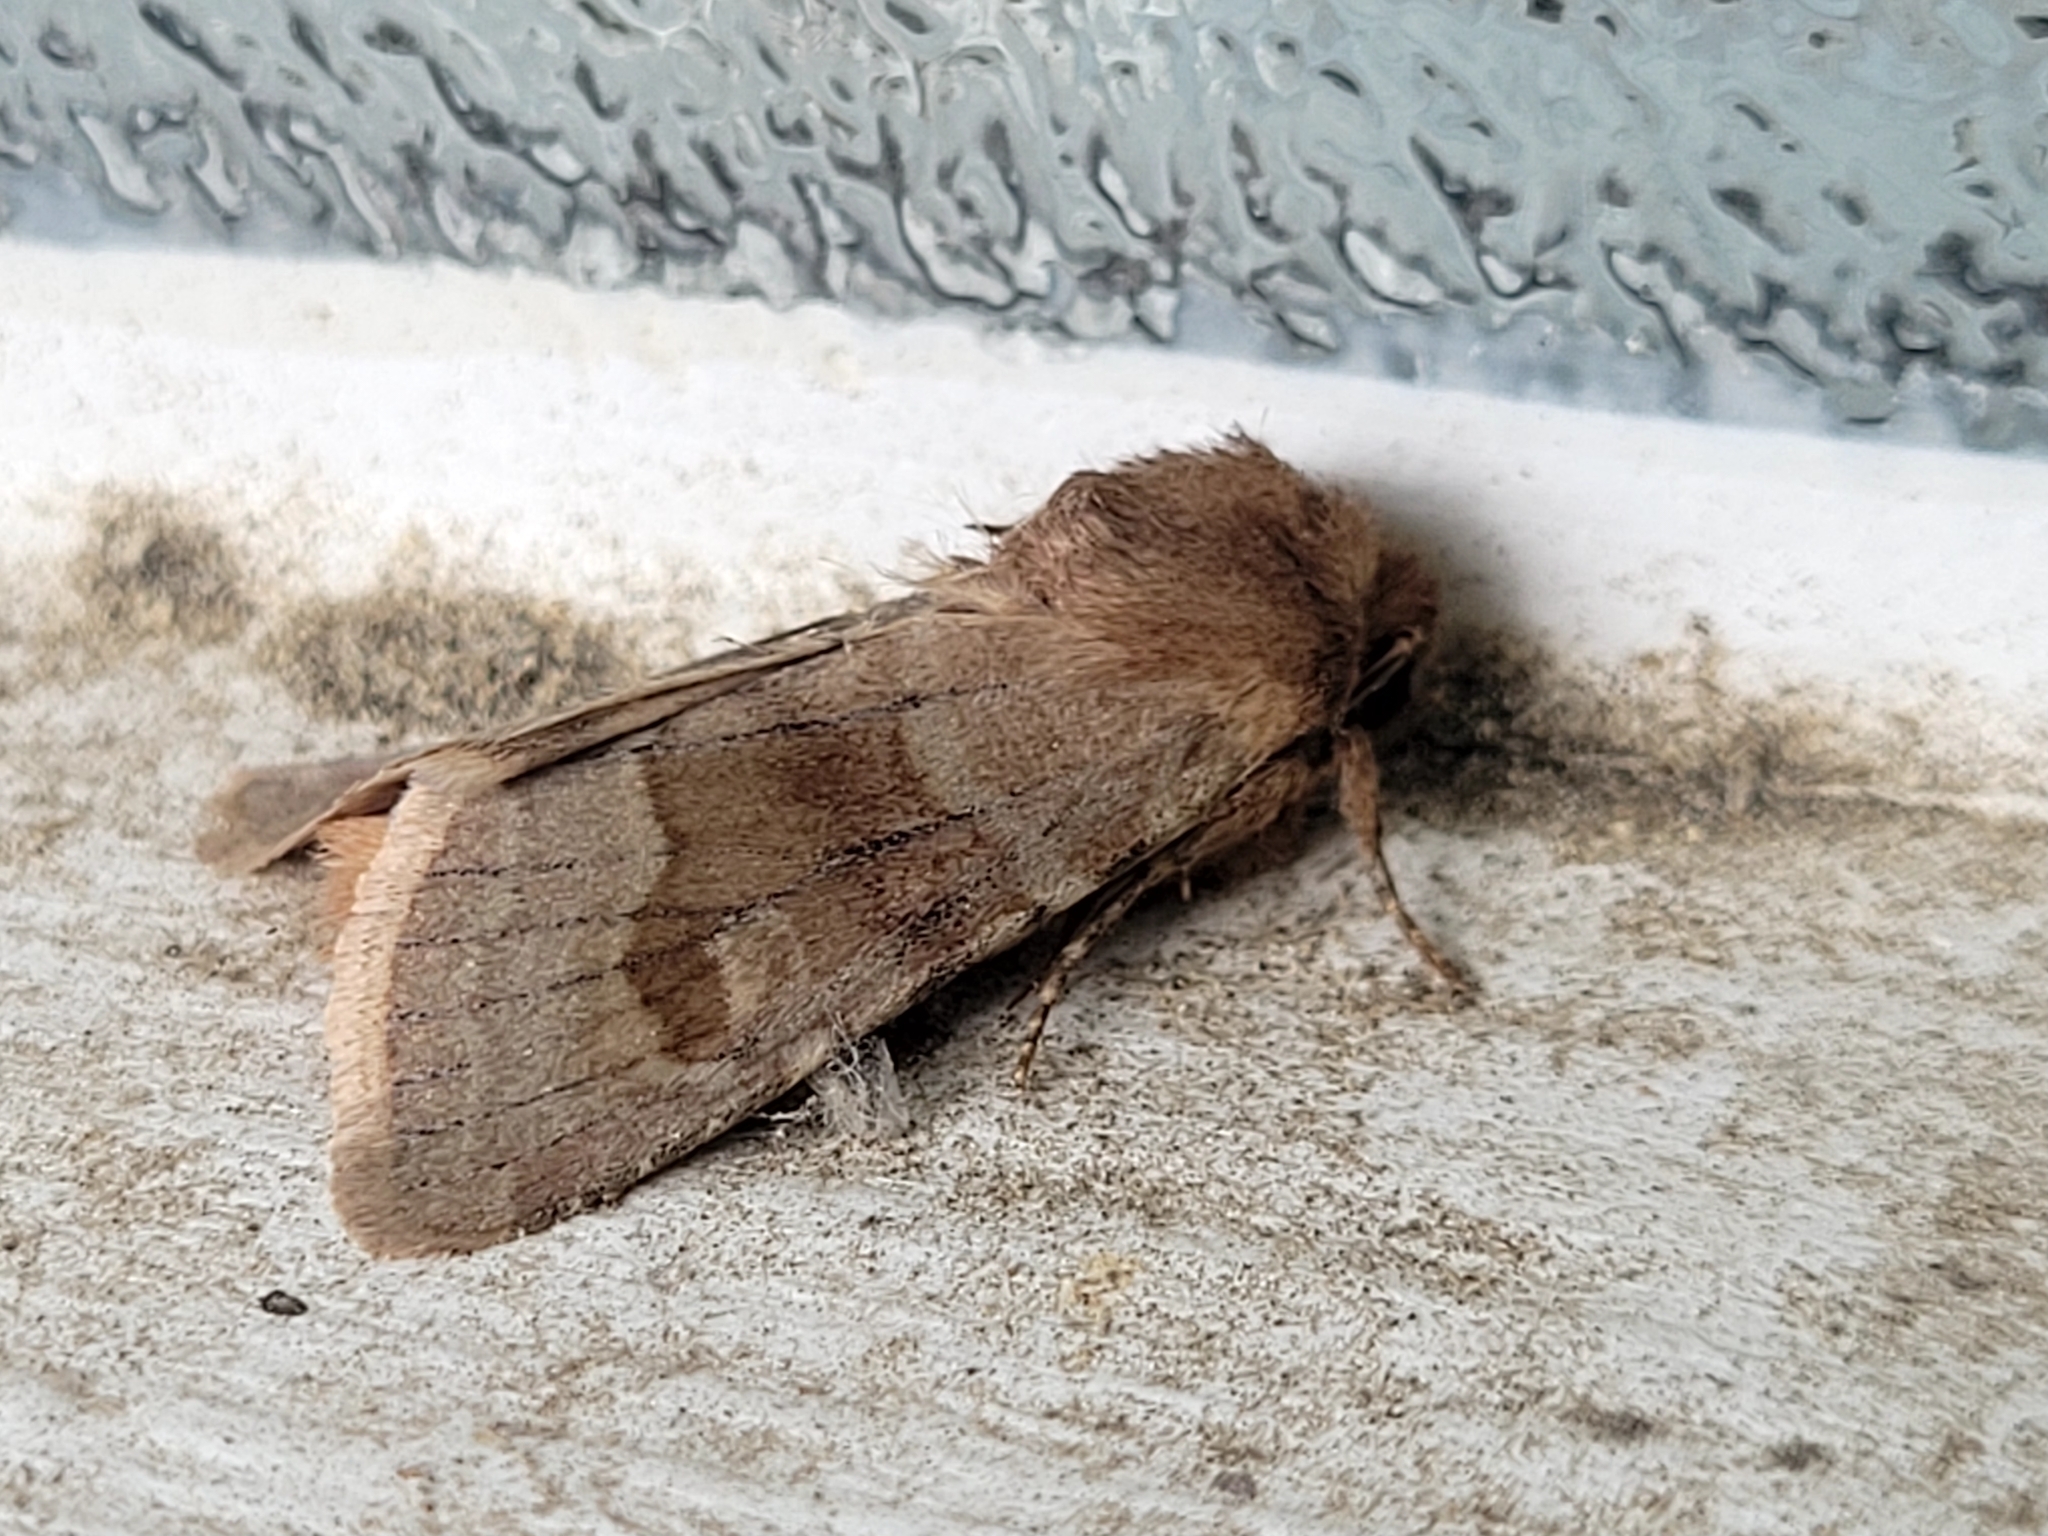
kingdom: Animalia
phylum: Arthropoda
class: Insecta
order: Lepidoptera
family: Noctuidae
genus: Nephelodes
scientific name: Nephelodes minians
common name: Bronzed cutworm
